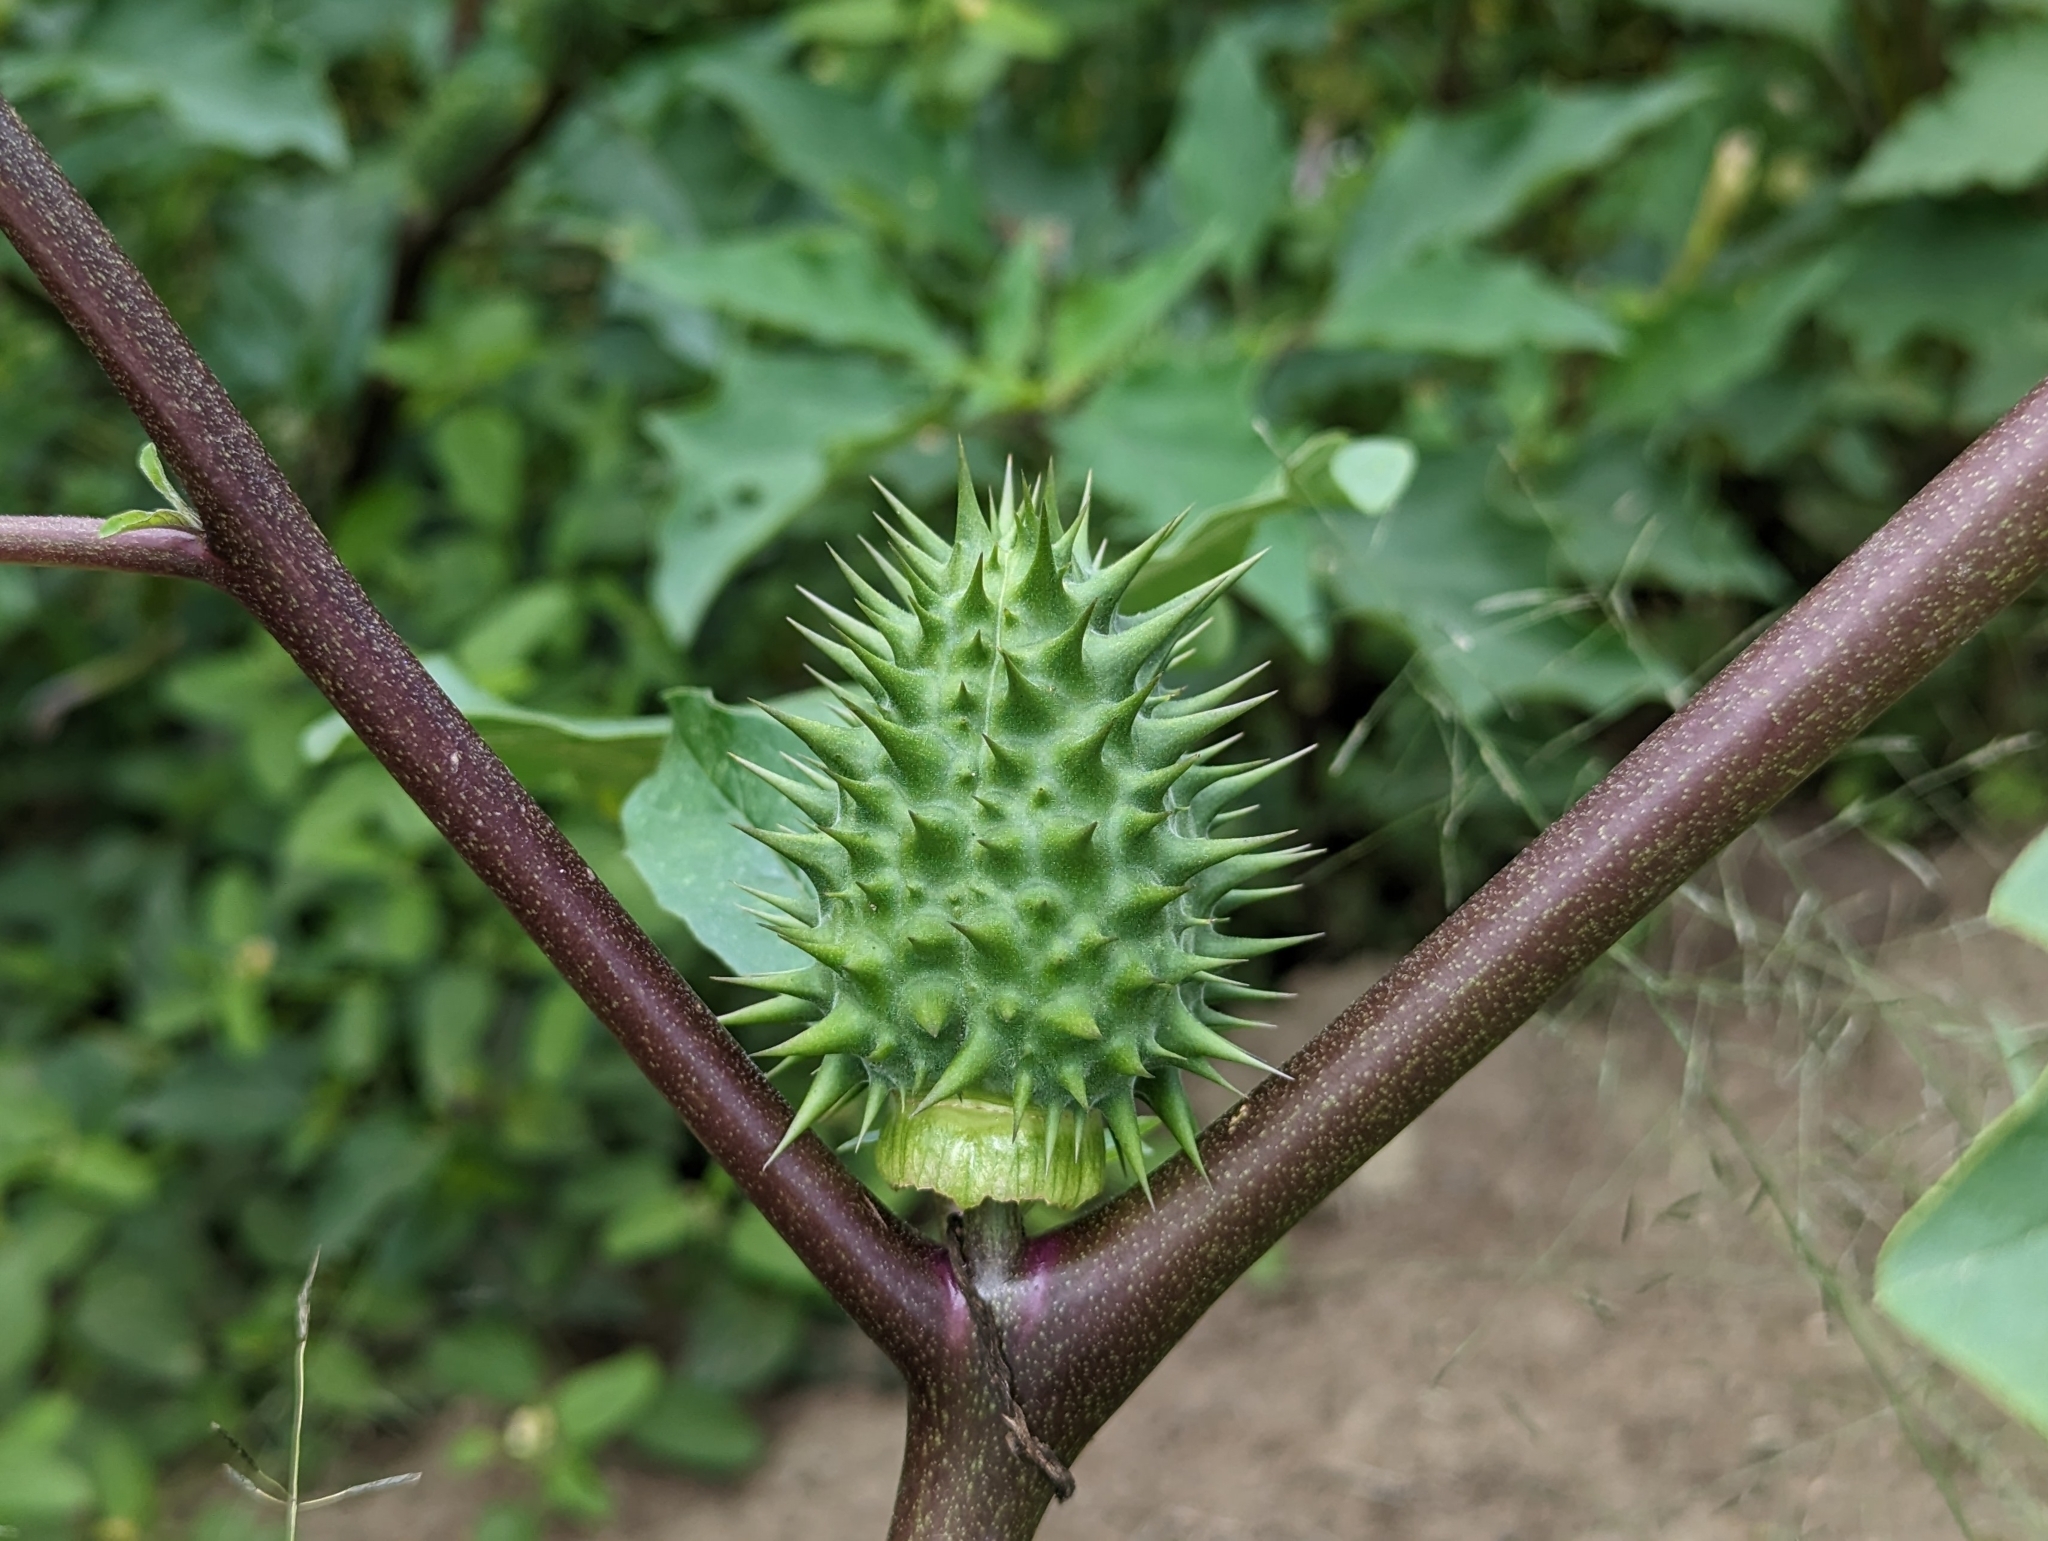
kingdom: Plantae
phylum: Tracheophyta
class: Magnoliopsida
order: Solanales
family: Solanaceae
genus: Datura
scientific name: Datura stramonium
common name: Thorn-apple
